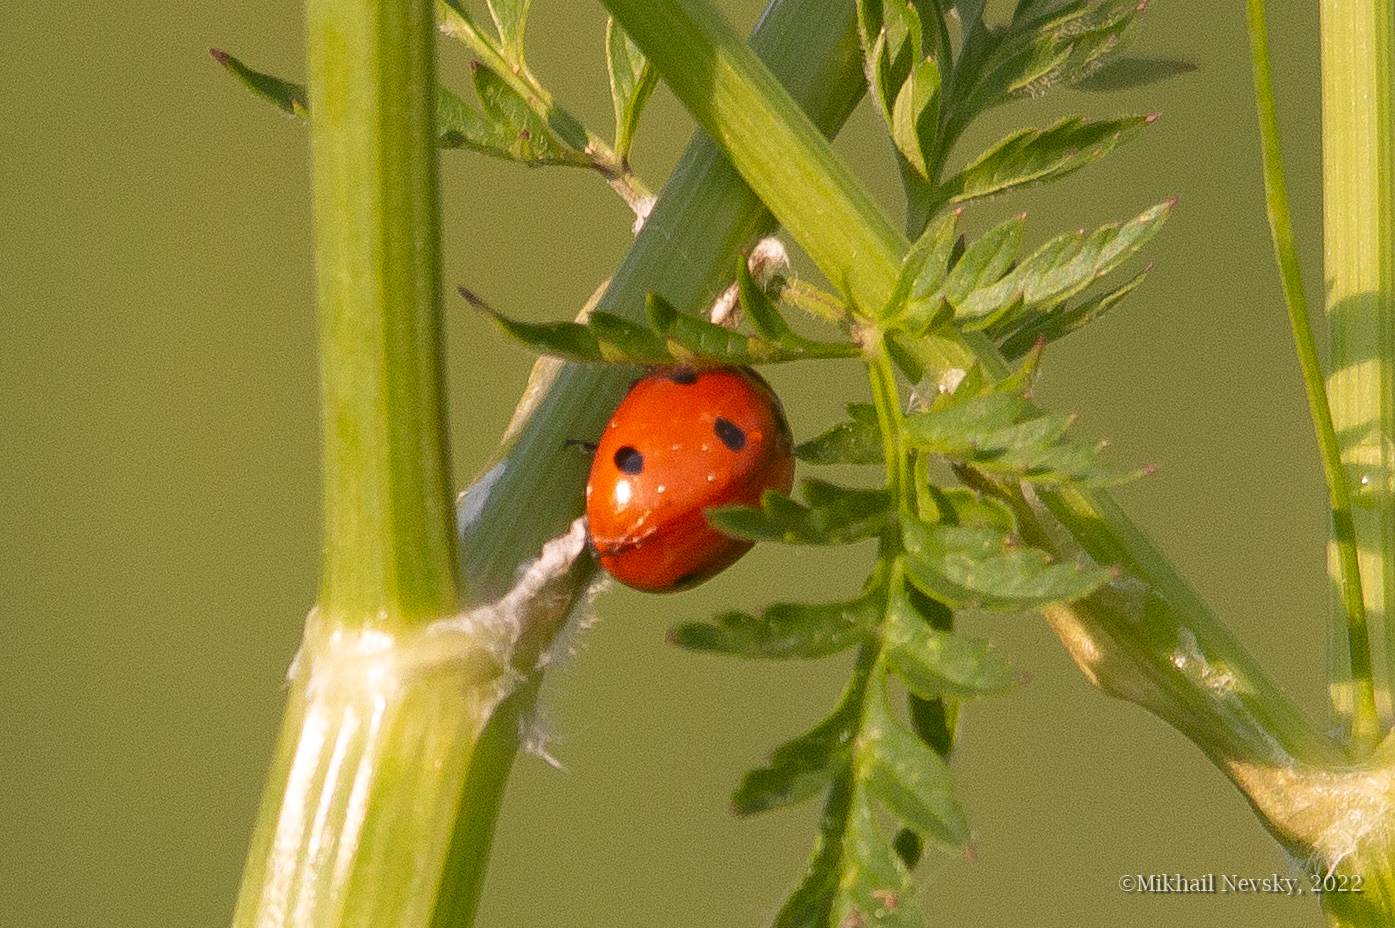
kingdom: Animalia
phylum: Arthropoda
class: Insecta
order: Coleoptera
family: Coccinellidae
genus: Coccinella
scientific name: Coccinella septempunctata
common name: Sevenspotted lady beetle
